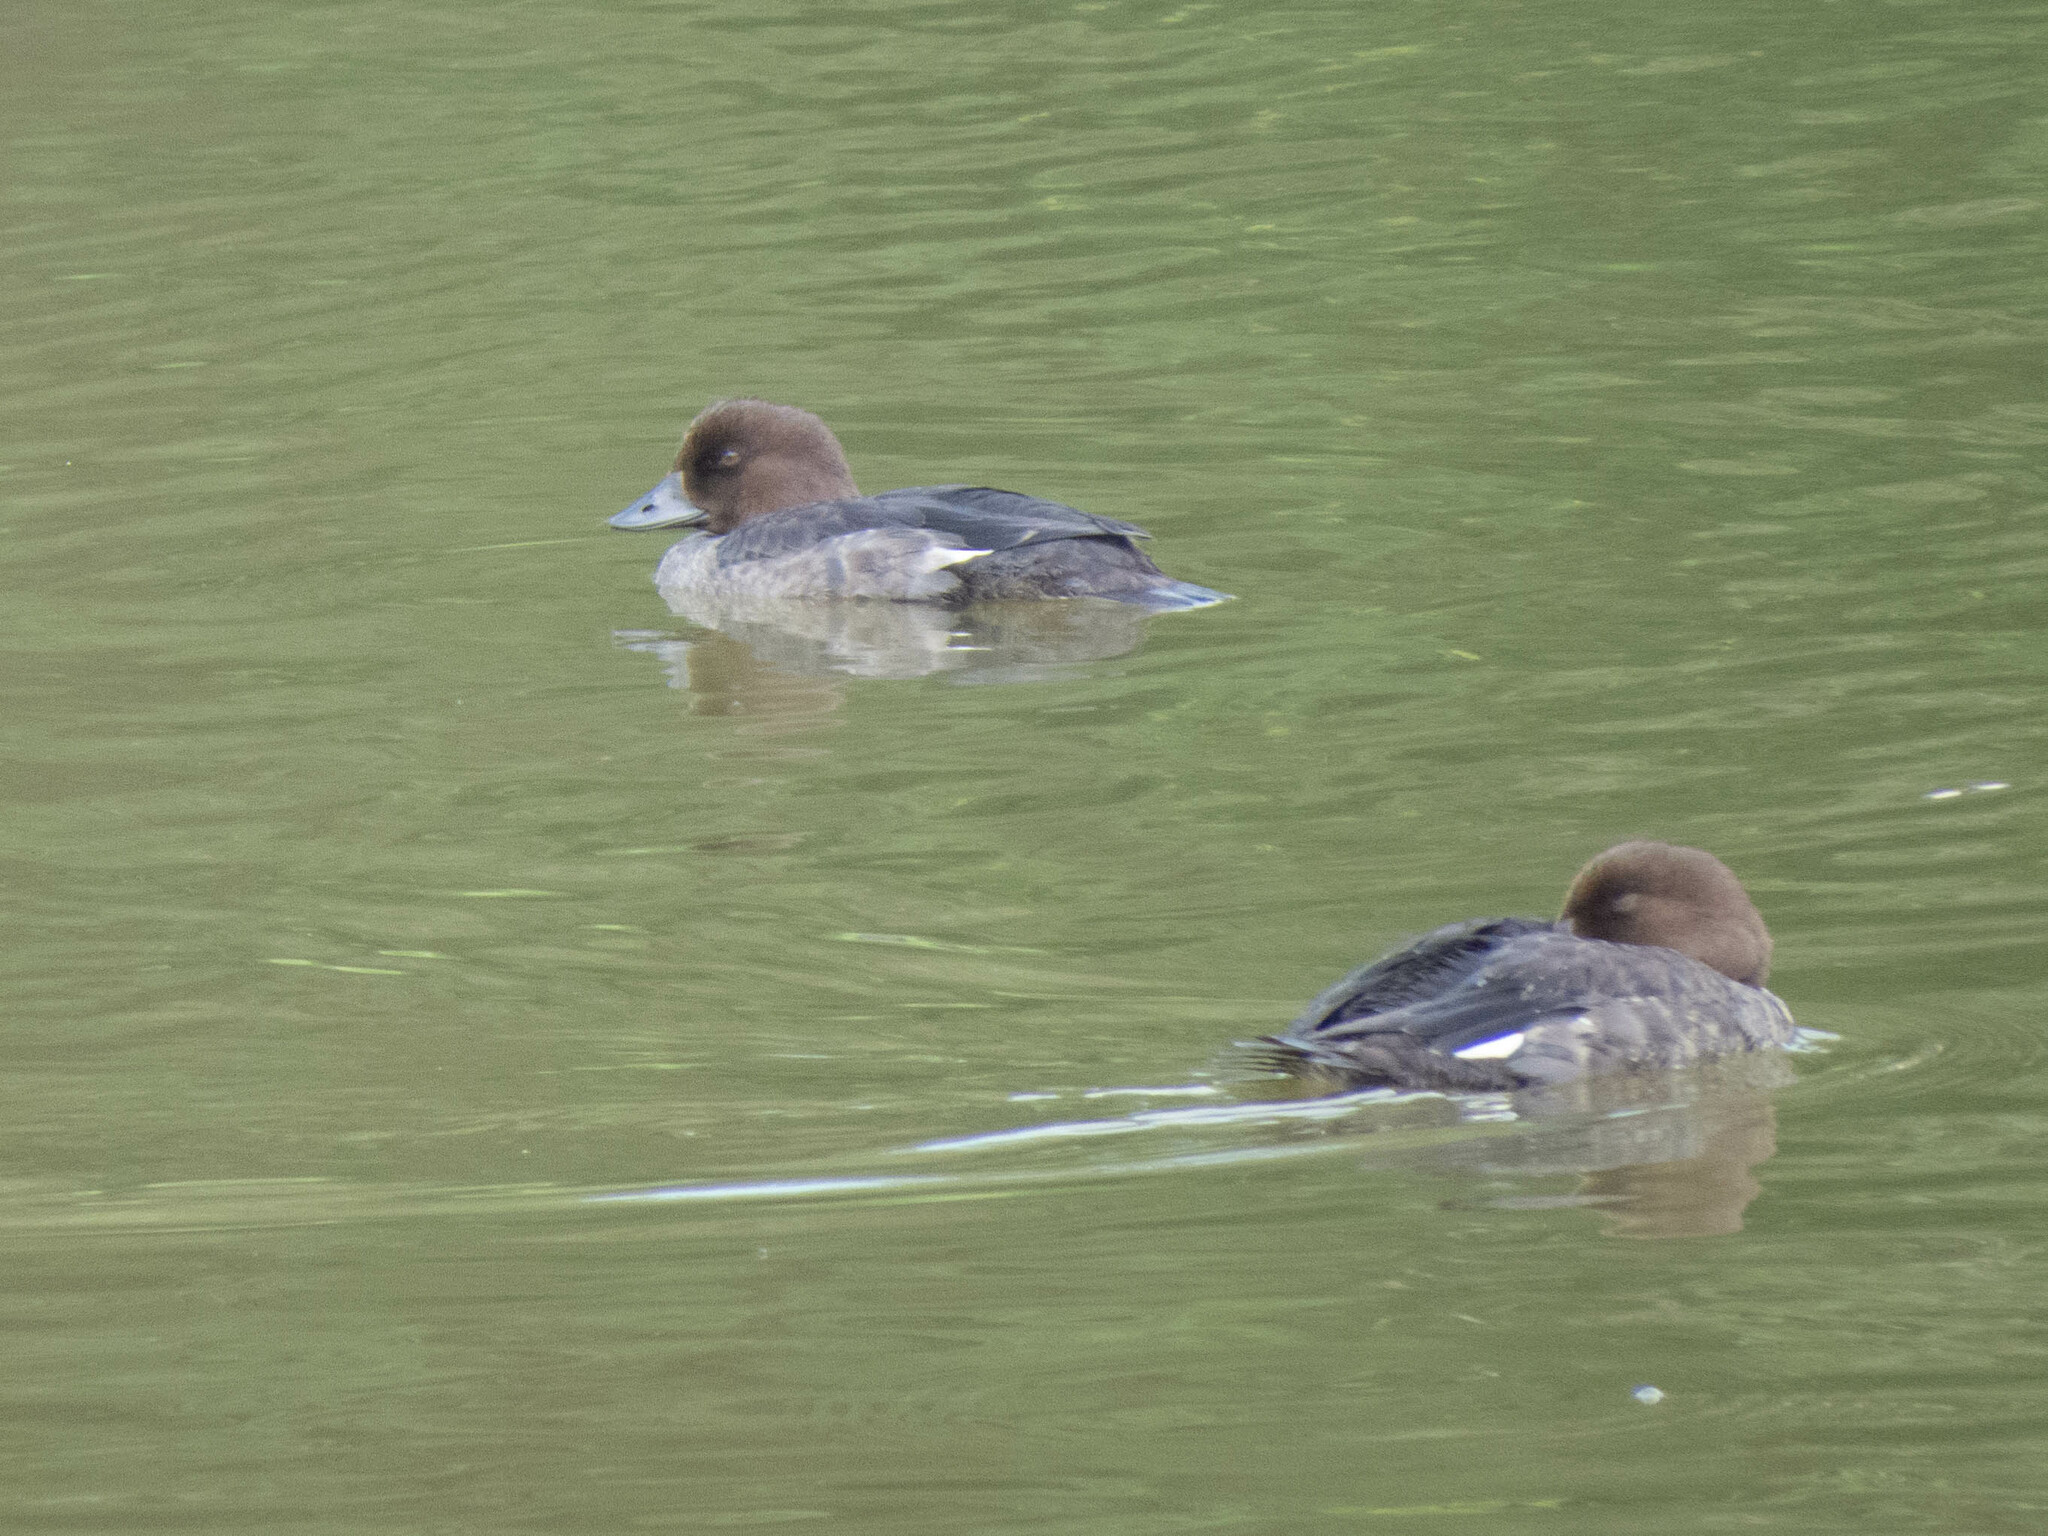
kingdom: Animalia
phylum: Chordata
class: Aves
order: Anseriformes
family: Anatidae
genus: Bucephala
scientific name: Bucephala clangula
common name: Common goldeneye
